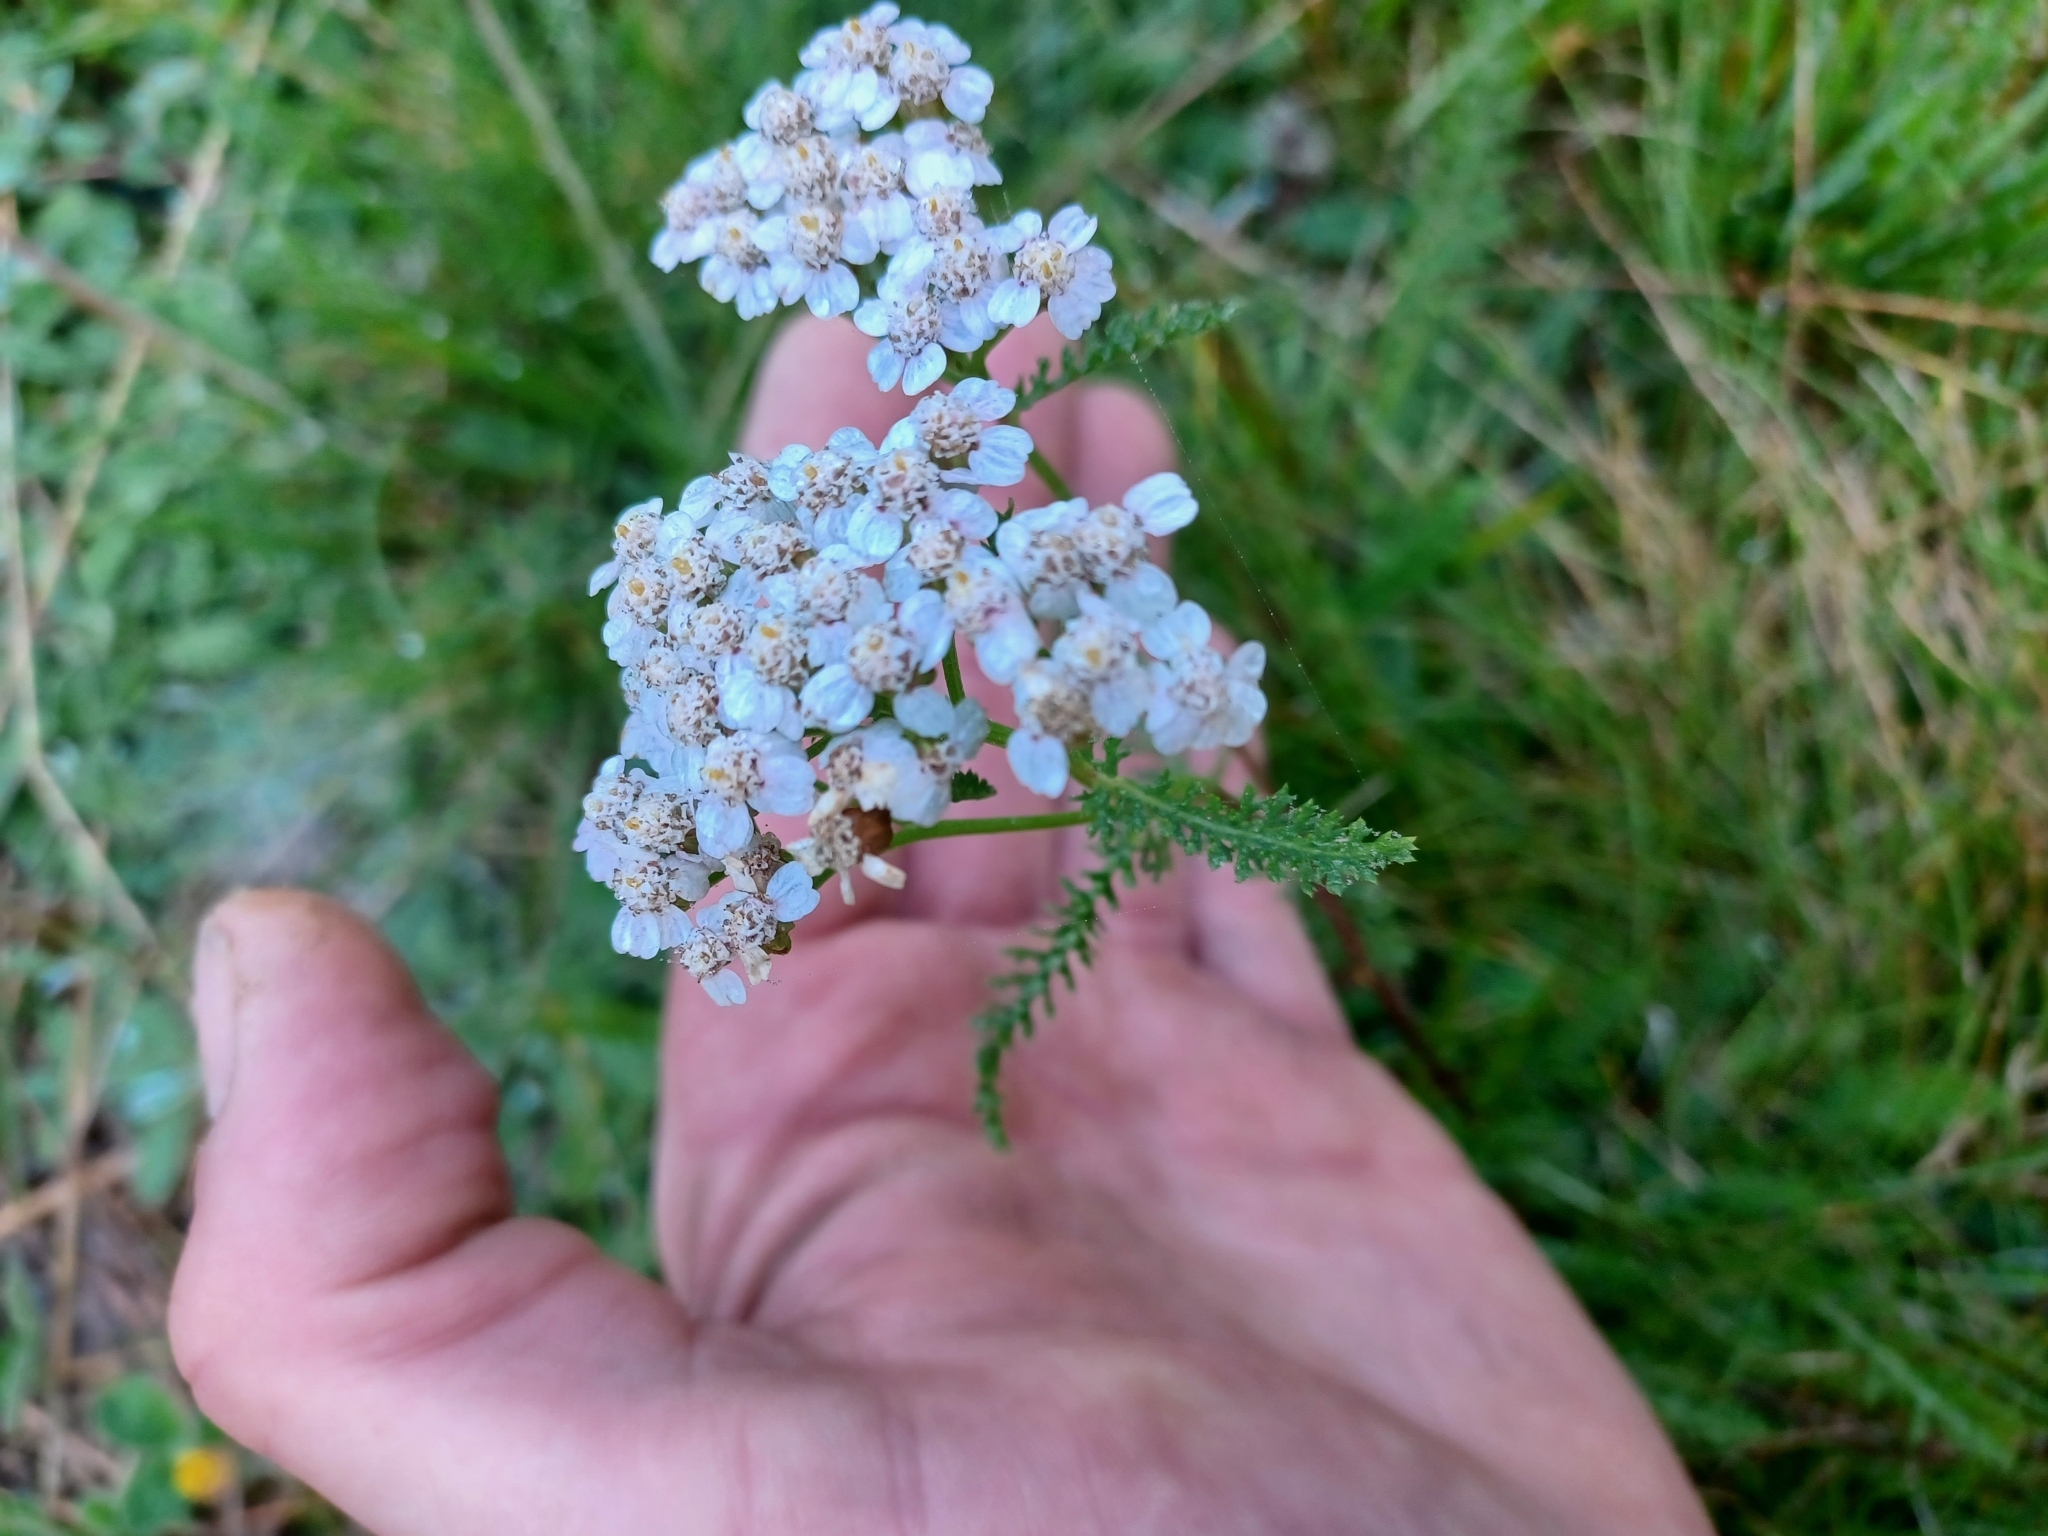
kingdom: Plantae
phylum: Tracheophyta
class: Magnoliopsida
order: Asterales
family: Asteraceae
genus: Achillea
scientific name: Achillea millefolium
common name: Yarrow
